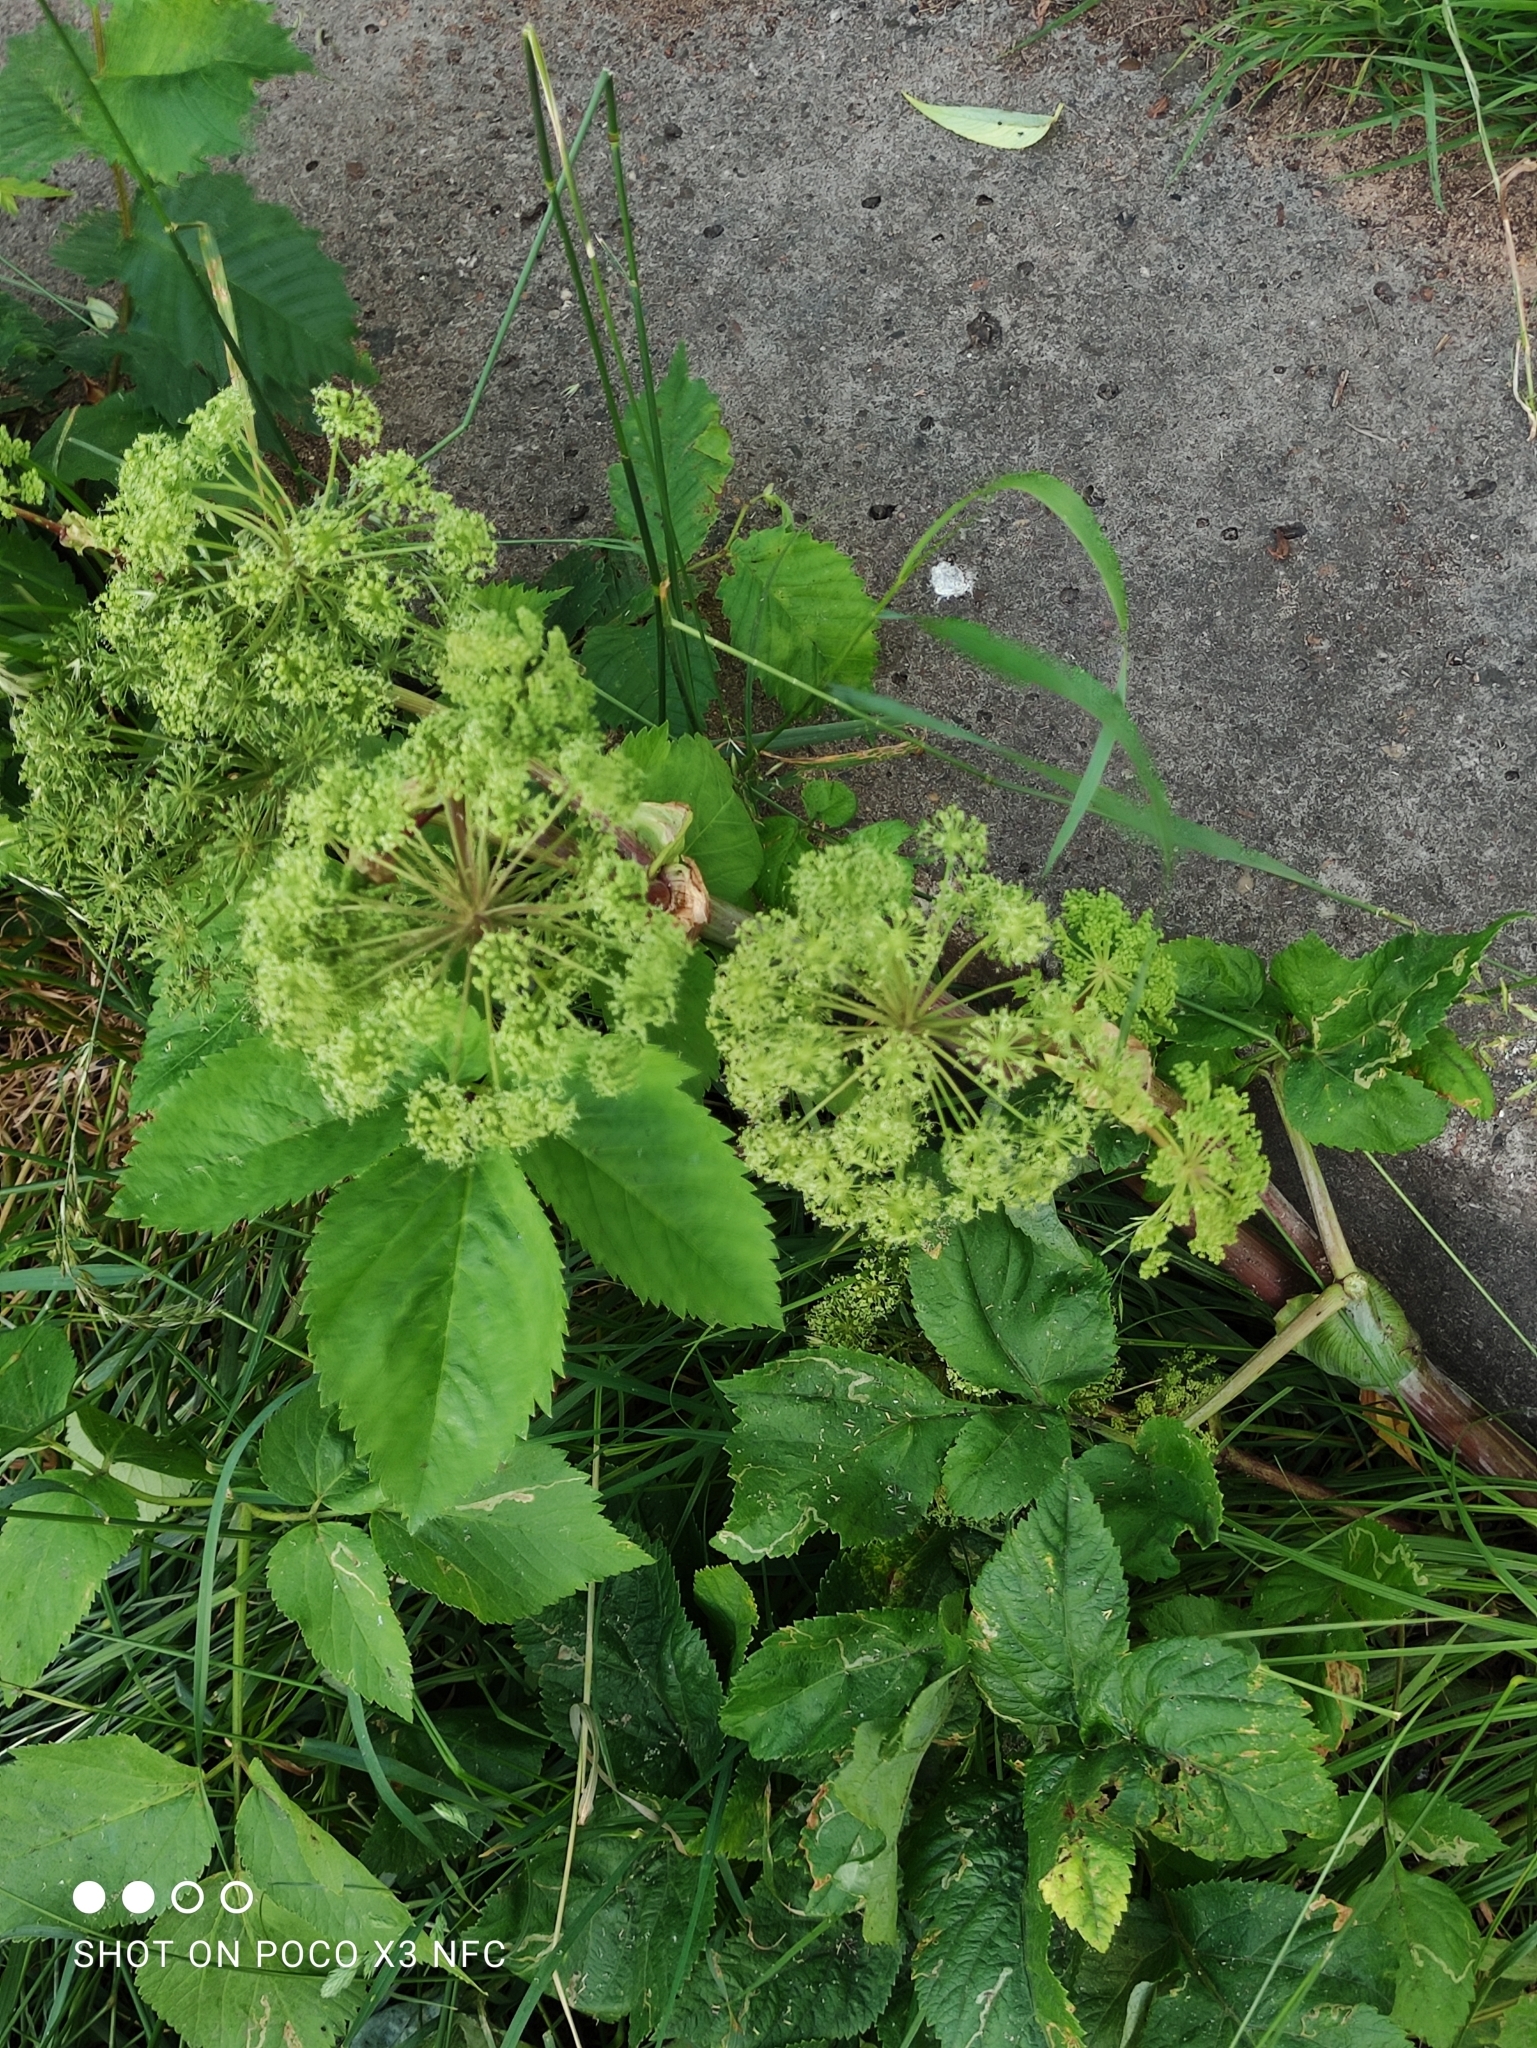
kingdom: Plantae
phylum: Tracheophyta
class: Magnoliopsida
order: Apiales
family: Apiaceae
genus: Angelica
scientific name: Angelica archangelica
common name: Garden angelica
